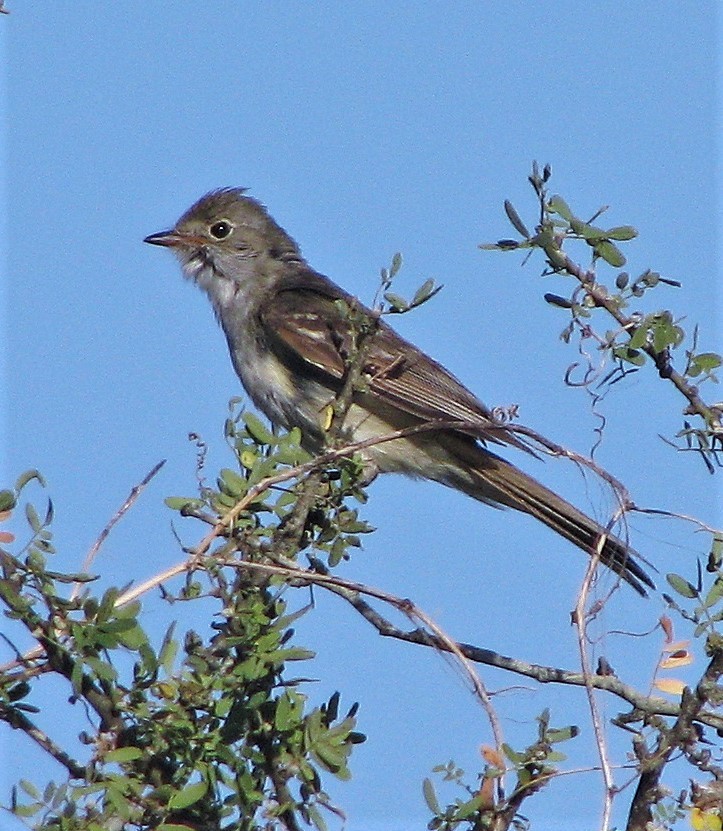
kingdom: Animalia
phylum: Chordata
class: Aves
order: Passeriformes
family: Tyrannidae
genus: Elaenia
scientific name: Elaenia spectabilis
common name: Large elaenia
